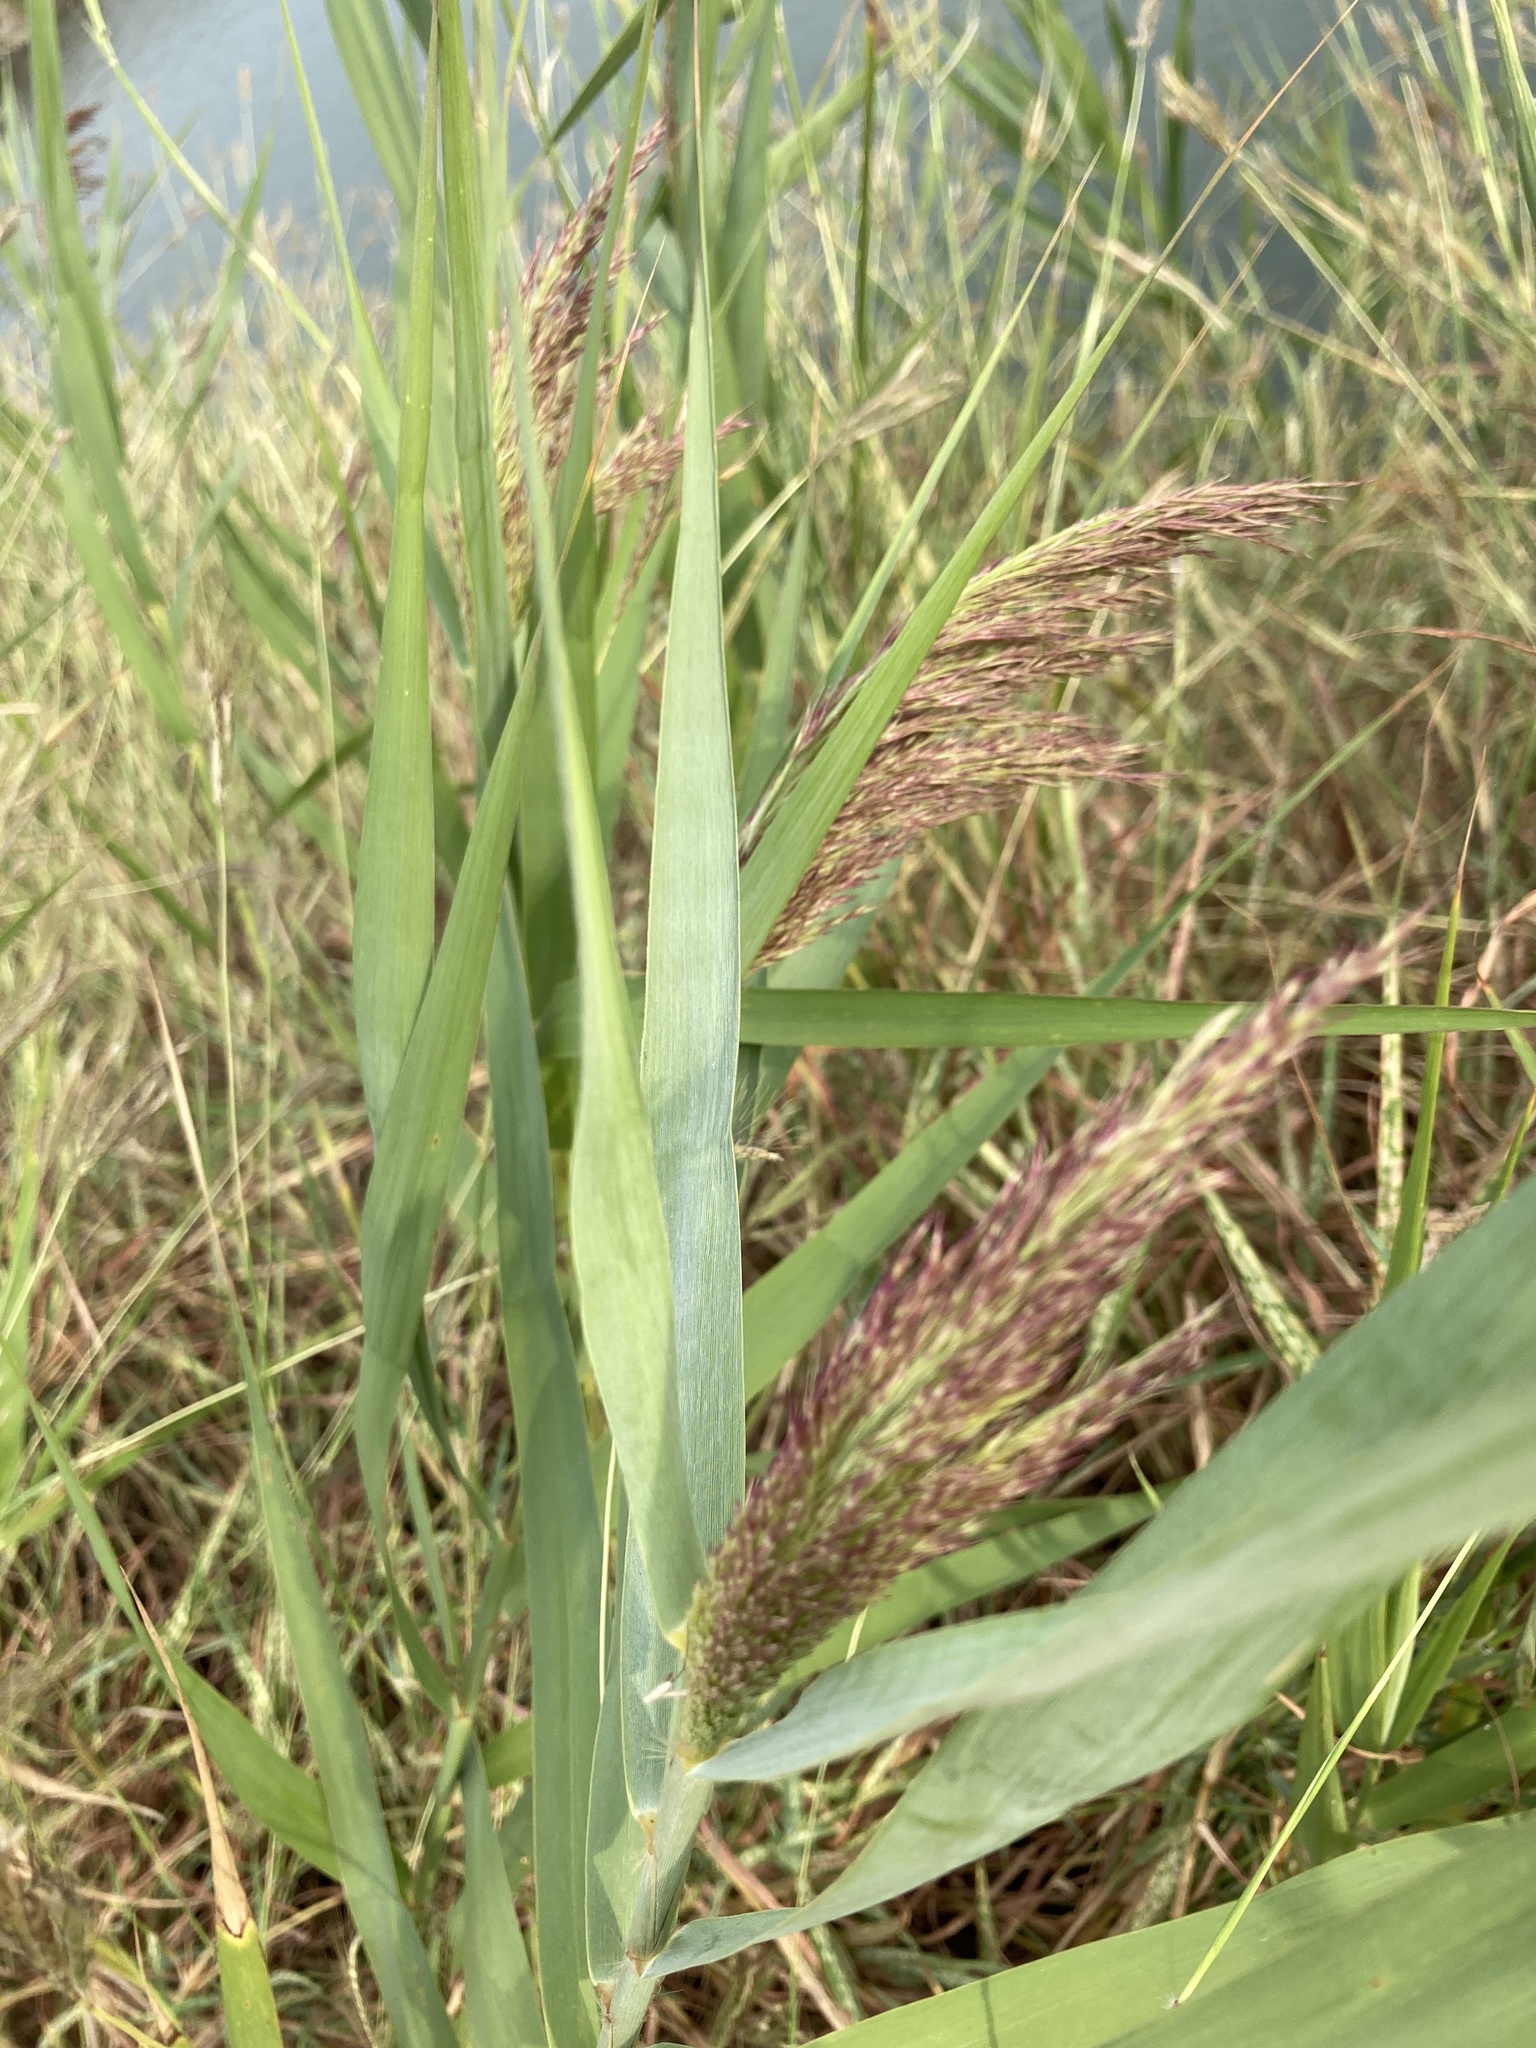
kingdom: Plantae
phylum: Tracheophyta
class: Liliopsida
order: Poales
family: Poaceae
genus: Phragmites
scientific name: Phragmites australis
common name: Common reed
